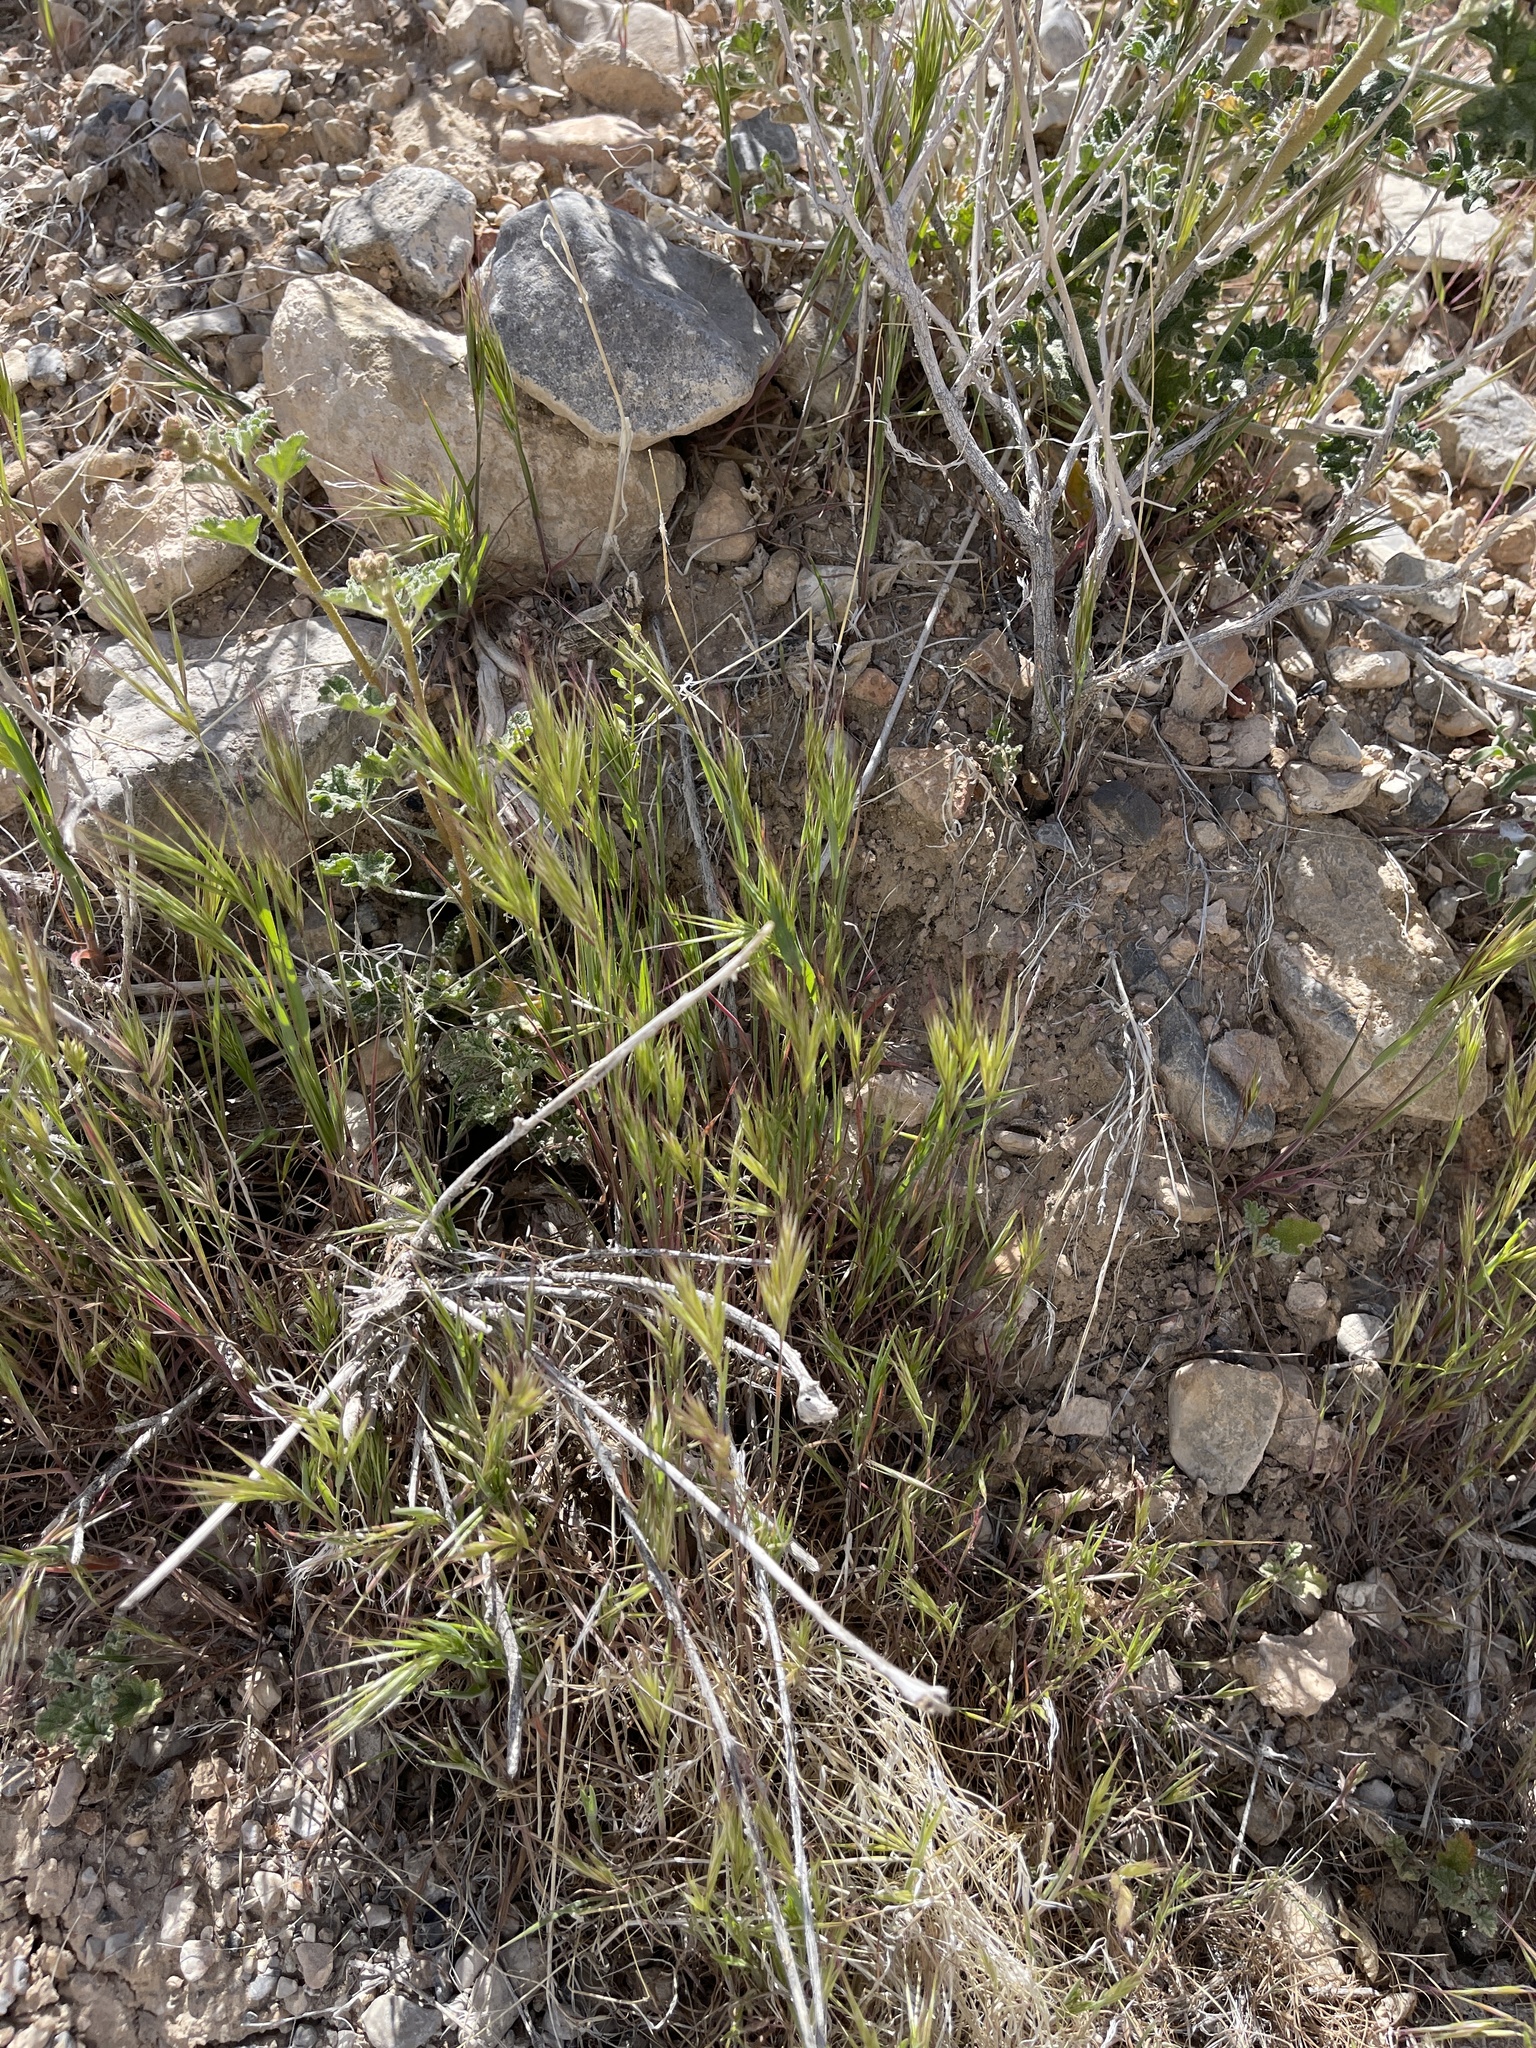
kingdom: Plantae
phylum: Tracheophyta
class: Liliopsida
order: Poales
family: Poaceae
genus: Bromus
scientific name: Bromus rubens
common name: Red brome
